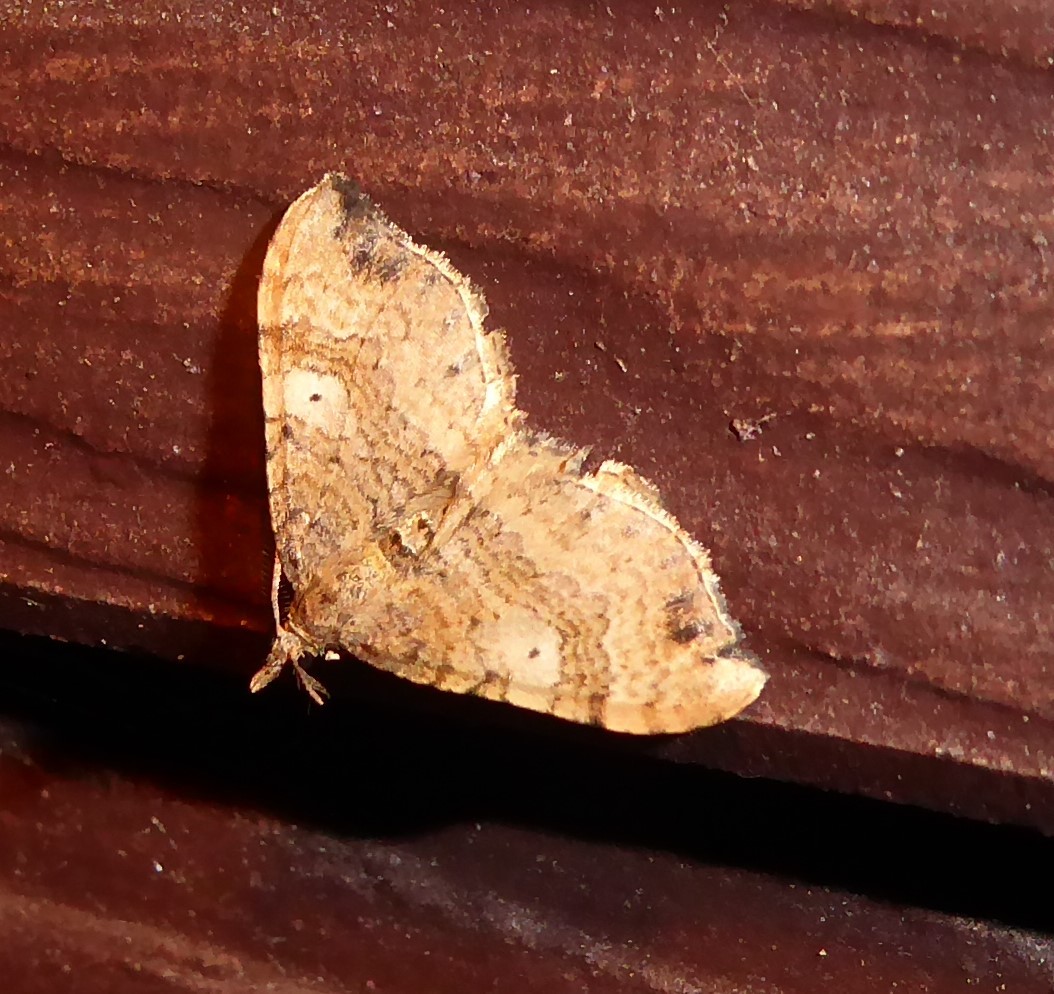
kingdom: Animalia
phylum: Arthropoda
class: Insecta
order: Lepidoptera
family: Geometridae
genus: Homodotis
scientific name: Homodotis megaspilata
